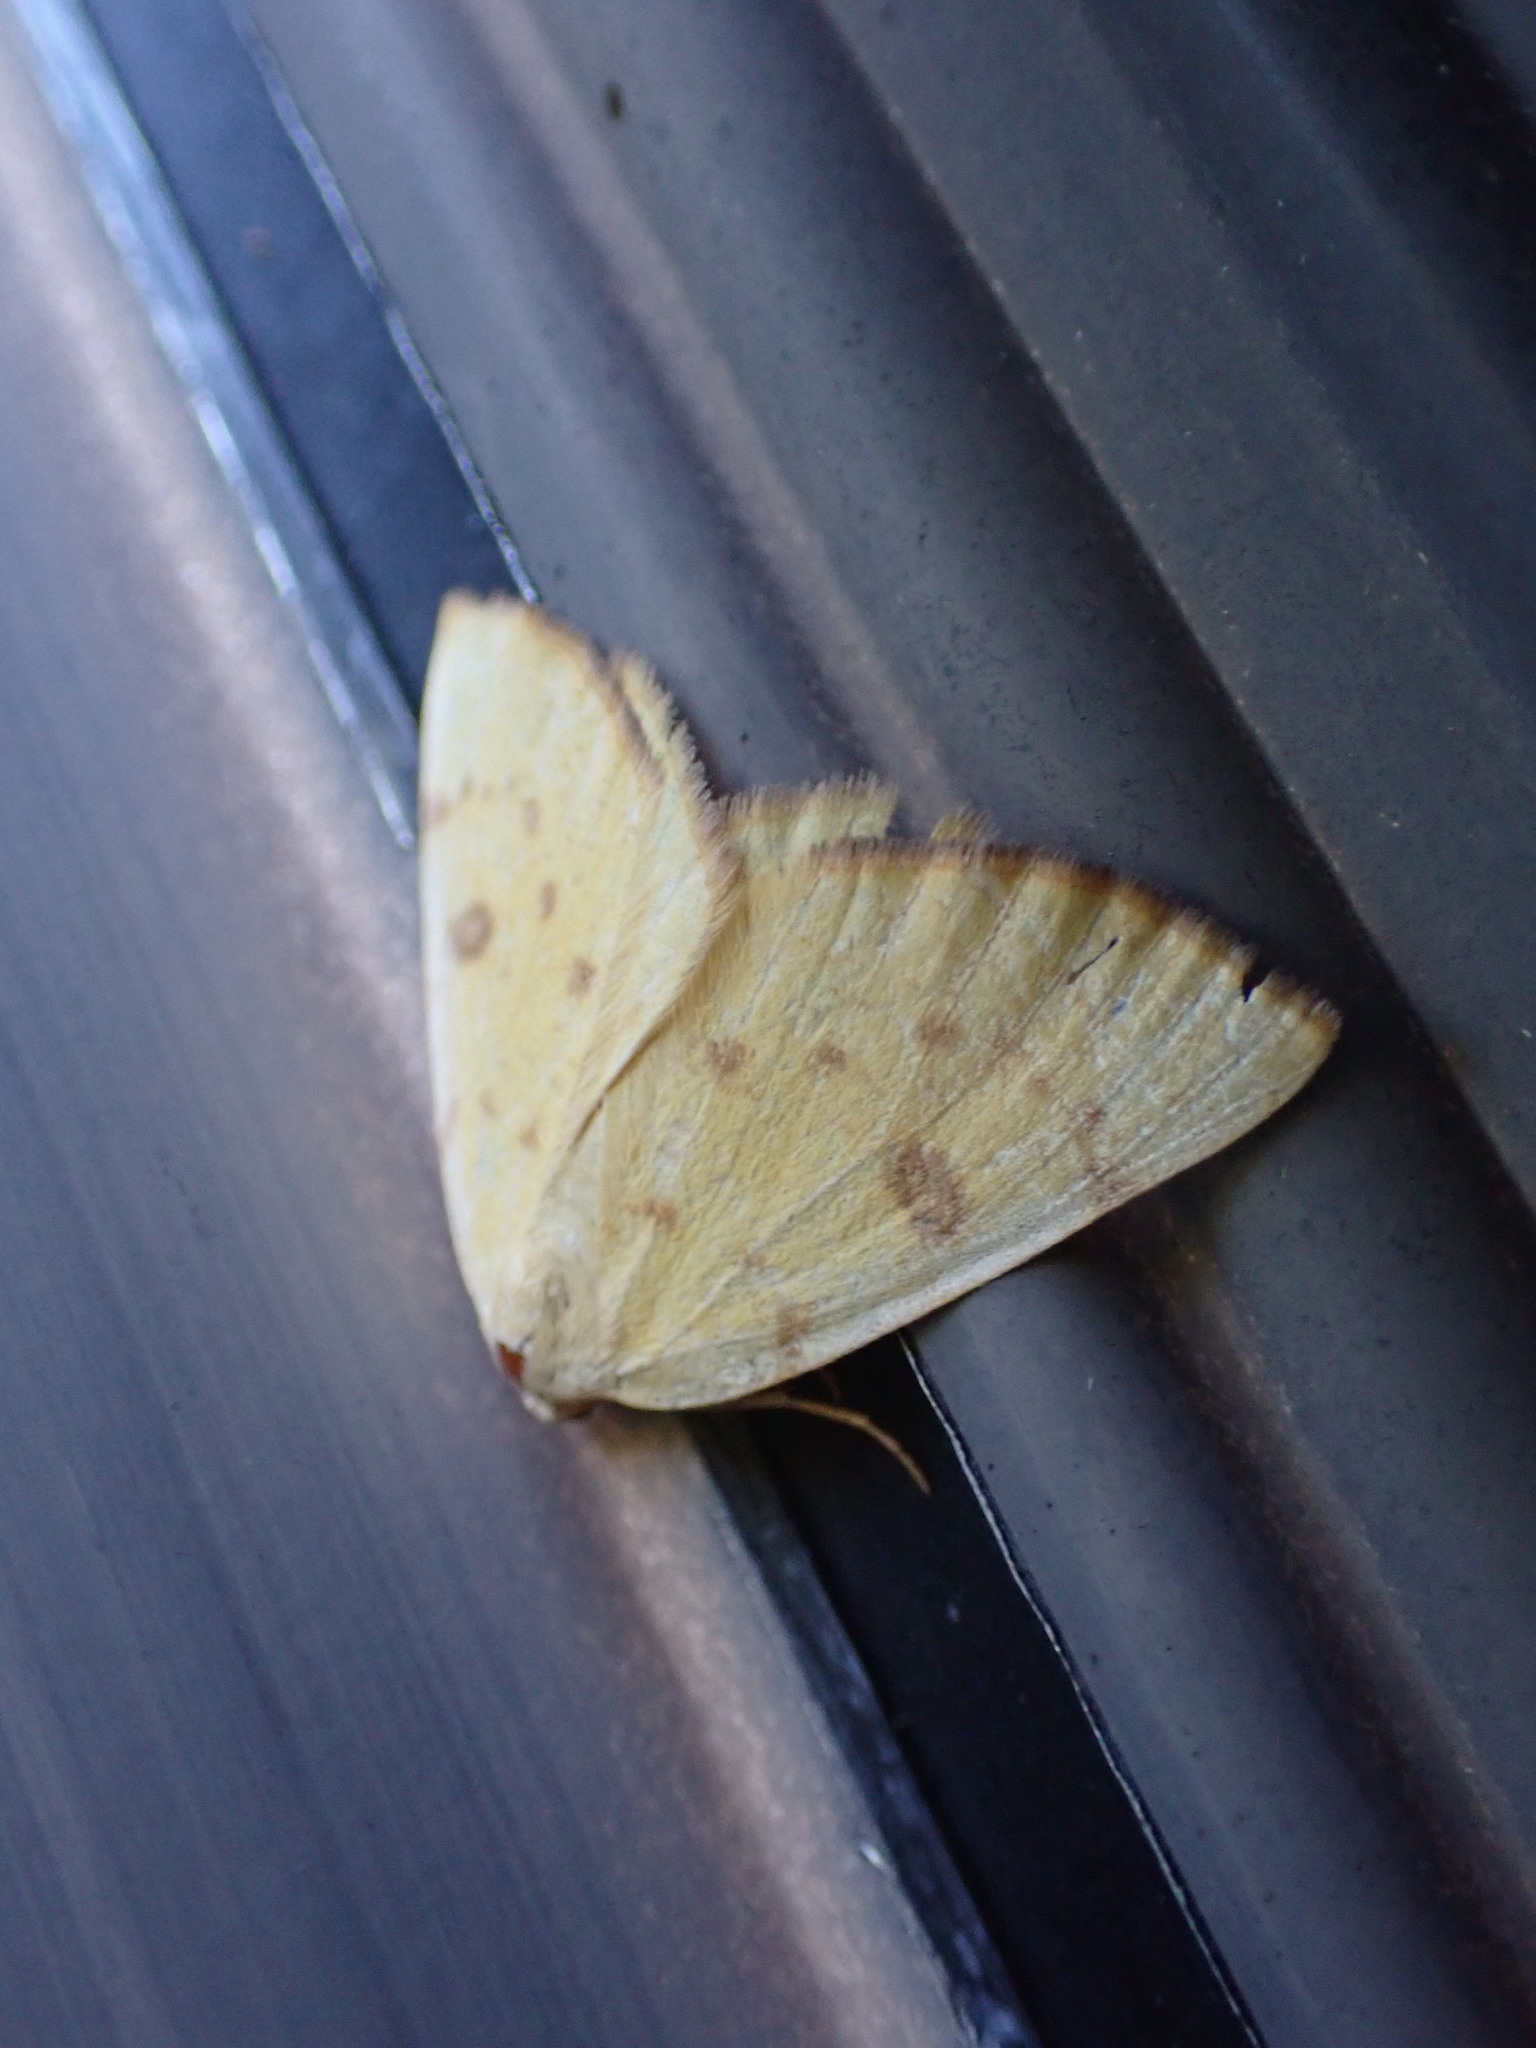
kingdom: Animalia
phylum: Arthropoda
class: Insecta
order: Lepidoptera
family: Geometridae
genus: Hesperumia
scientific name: Hesperumia sulphuraria
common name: Sulphur moth
